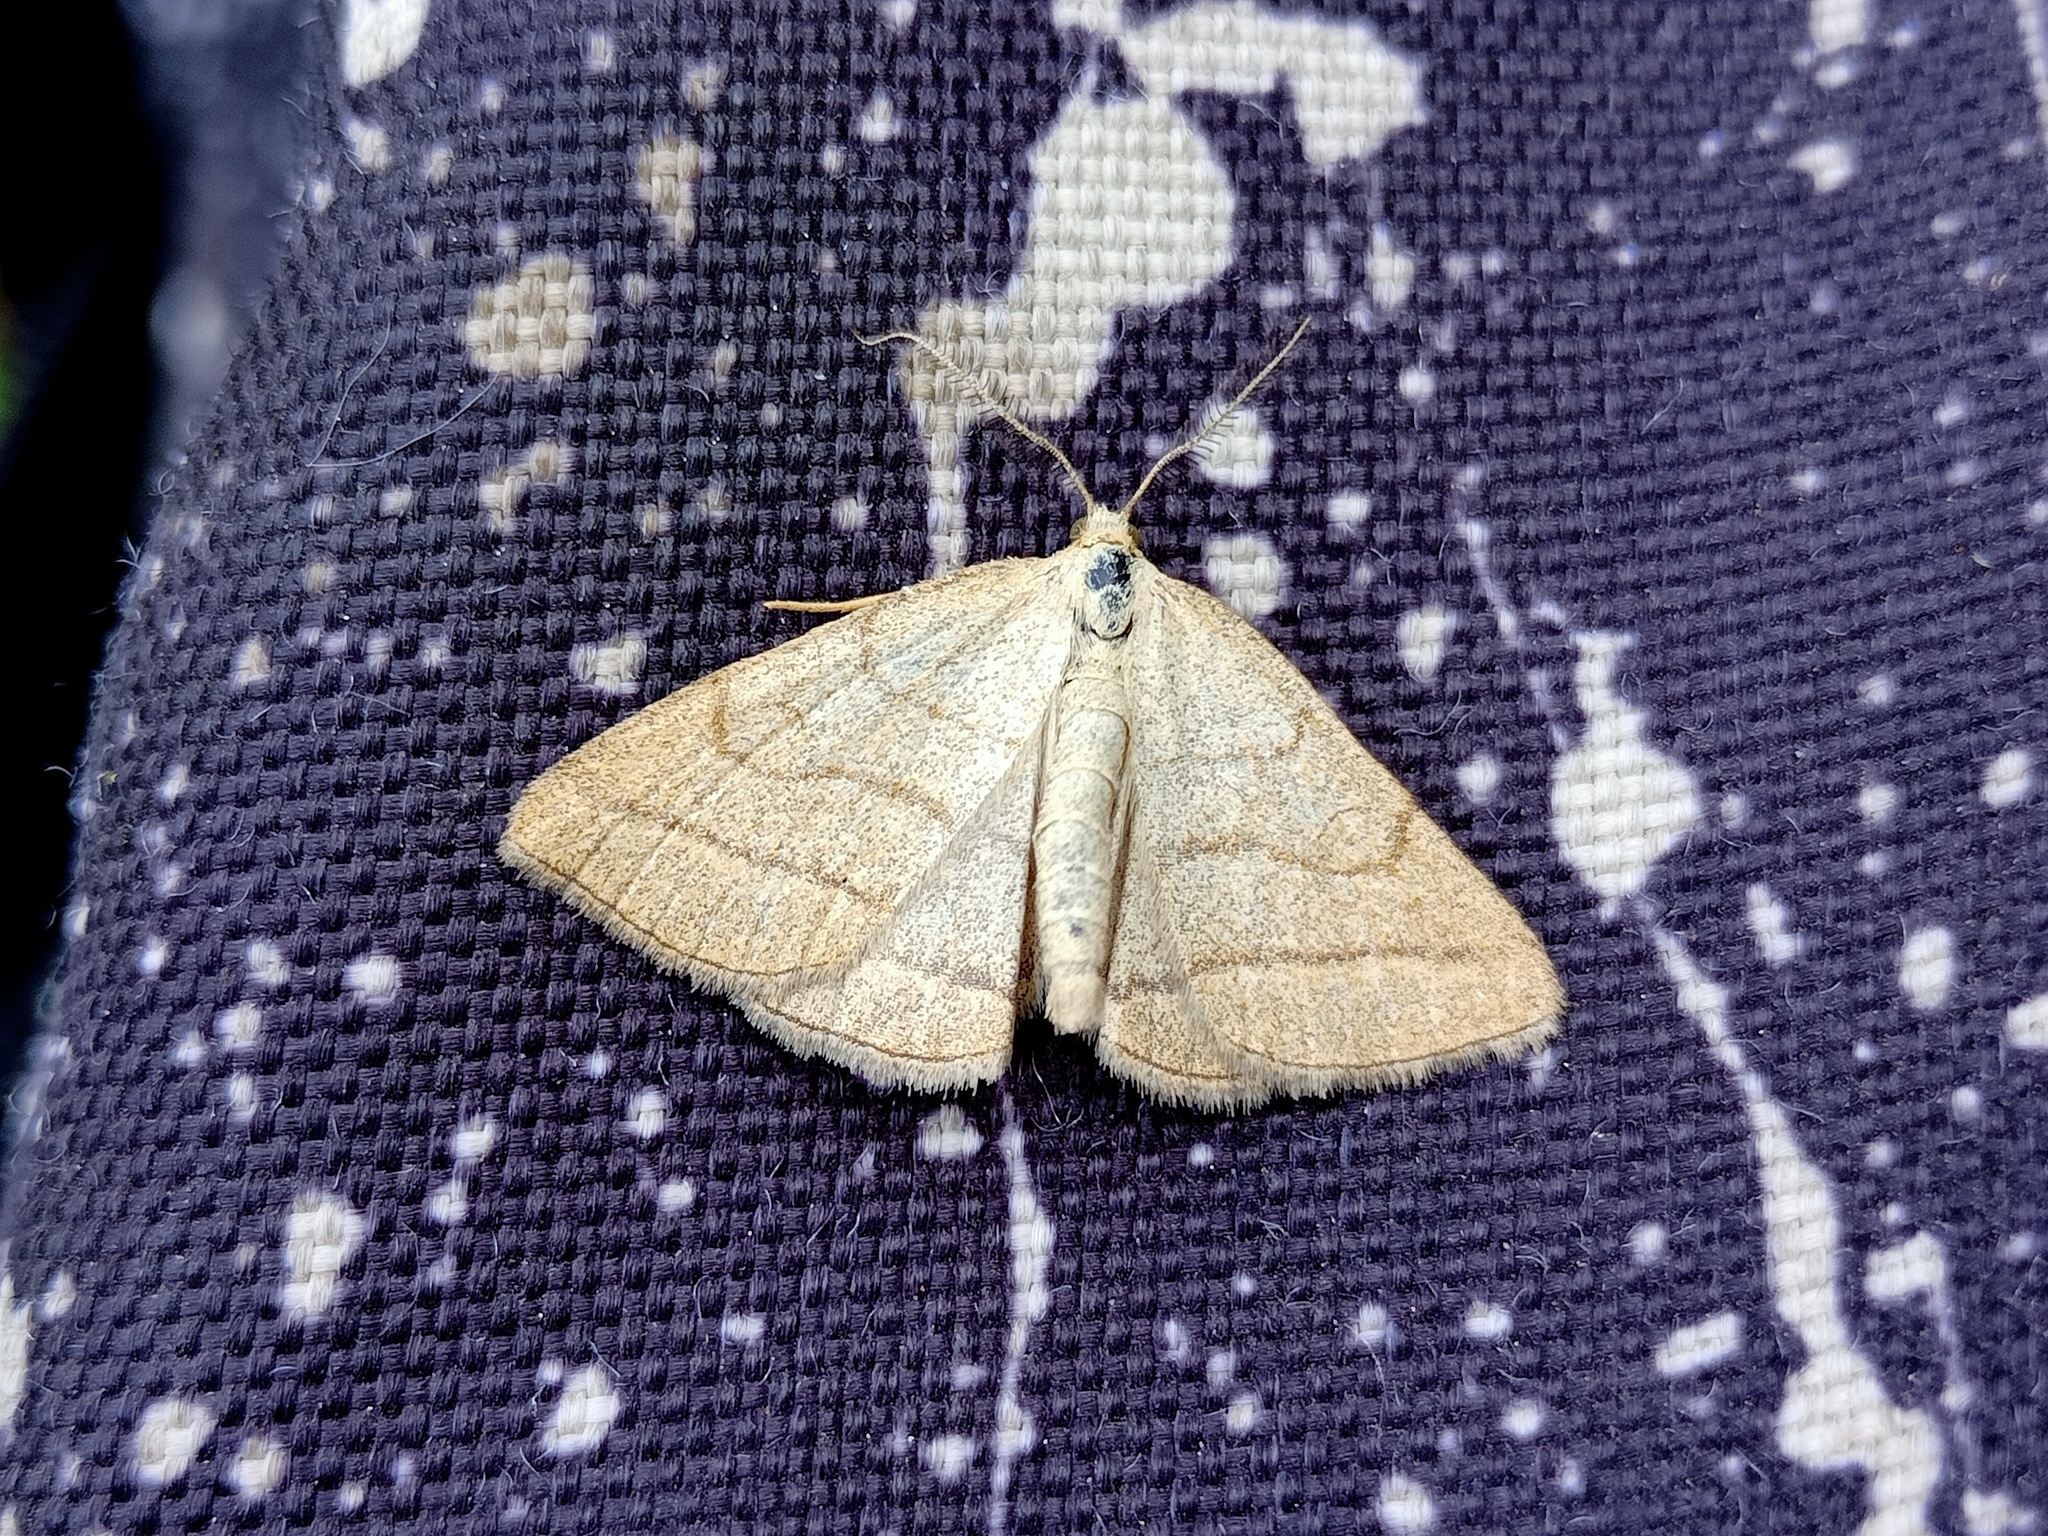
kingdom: Animalia
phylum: Arthropoda
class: Insecta
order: Lepidoptera
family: Erebidae
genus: Polypogon
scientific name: Polypogon tentacularia
